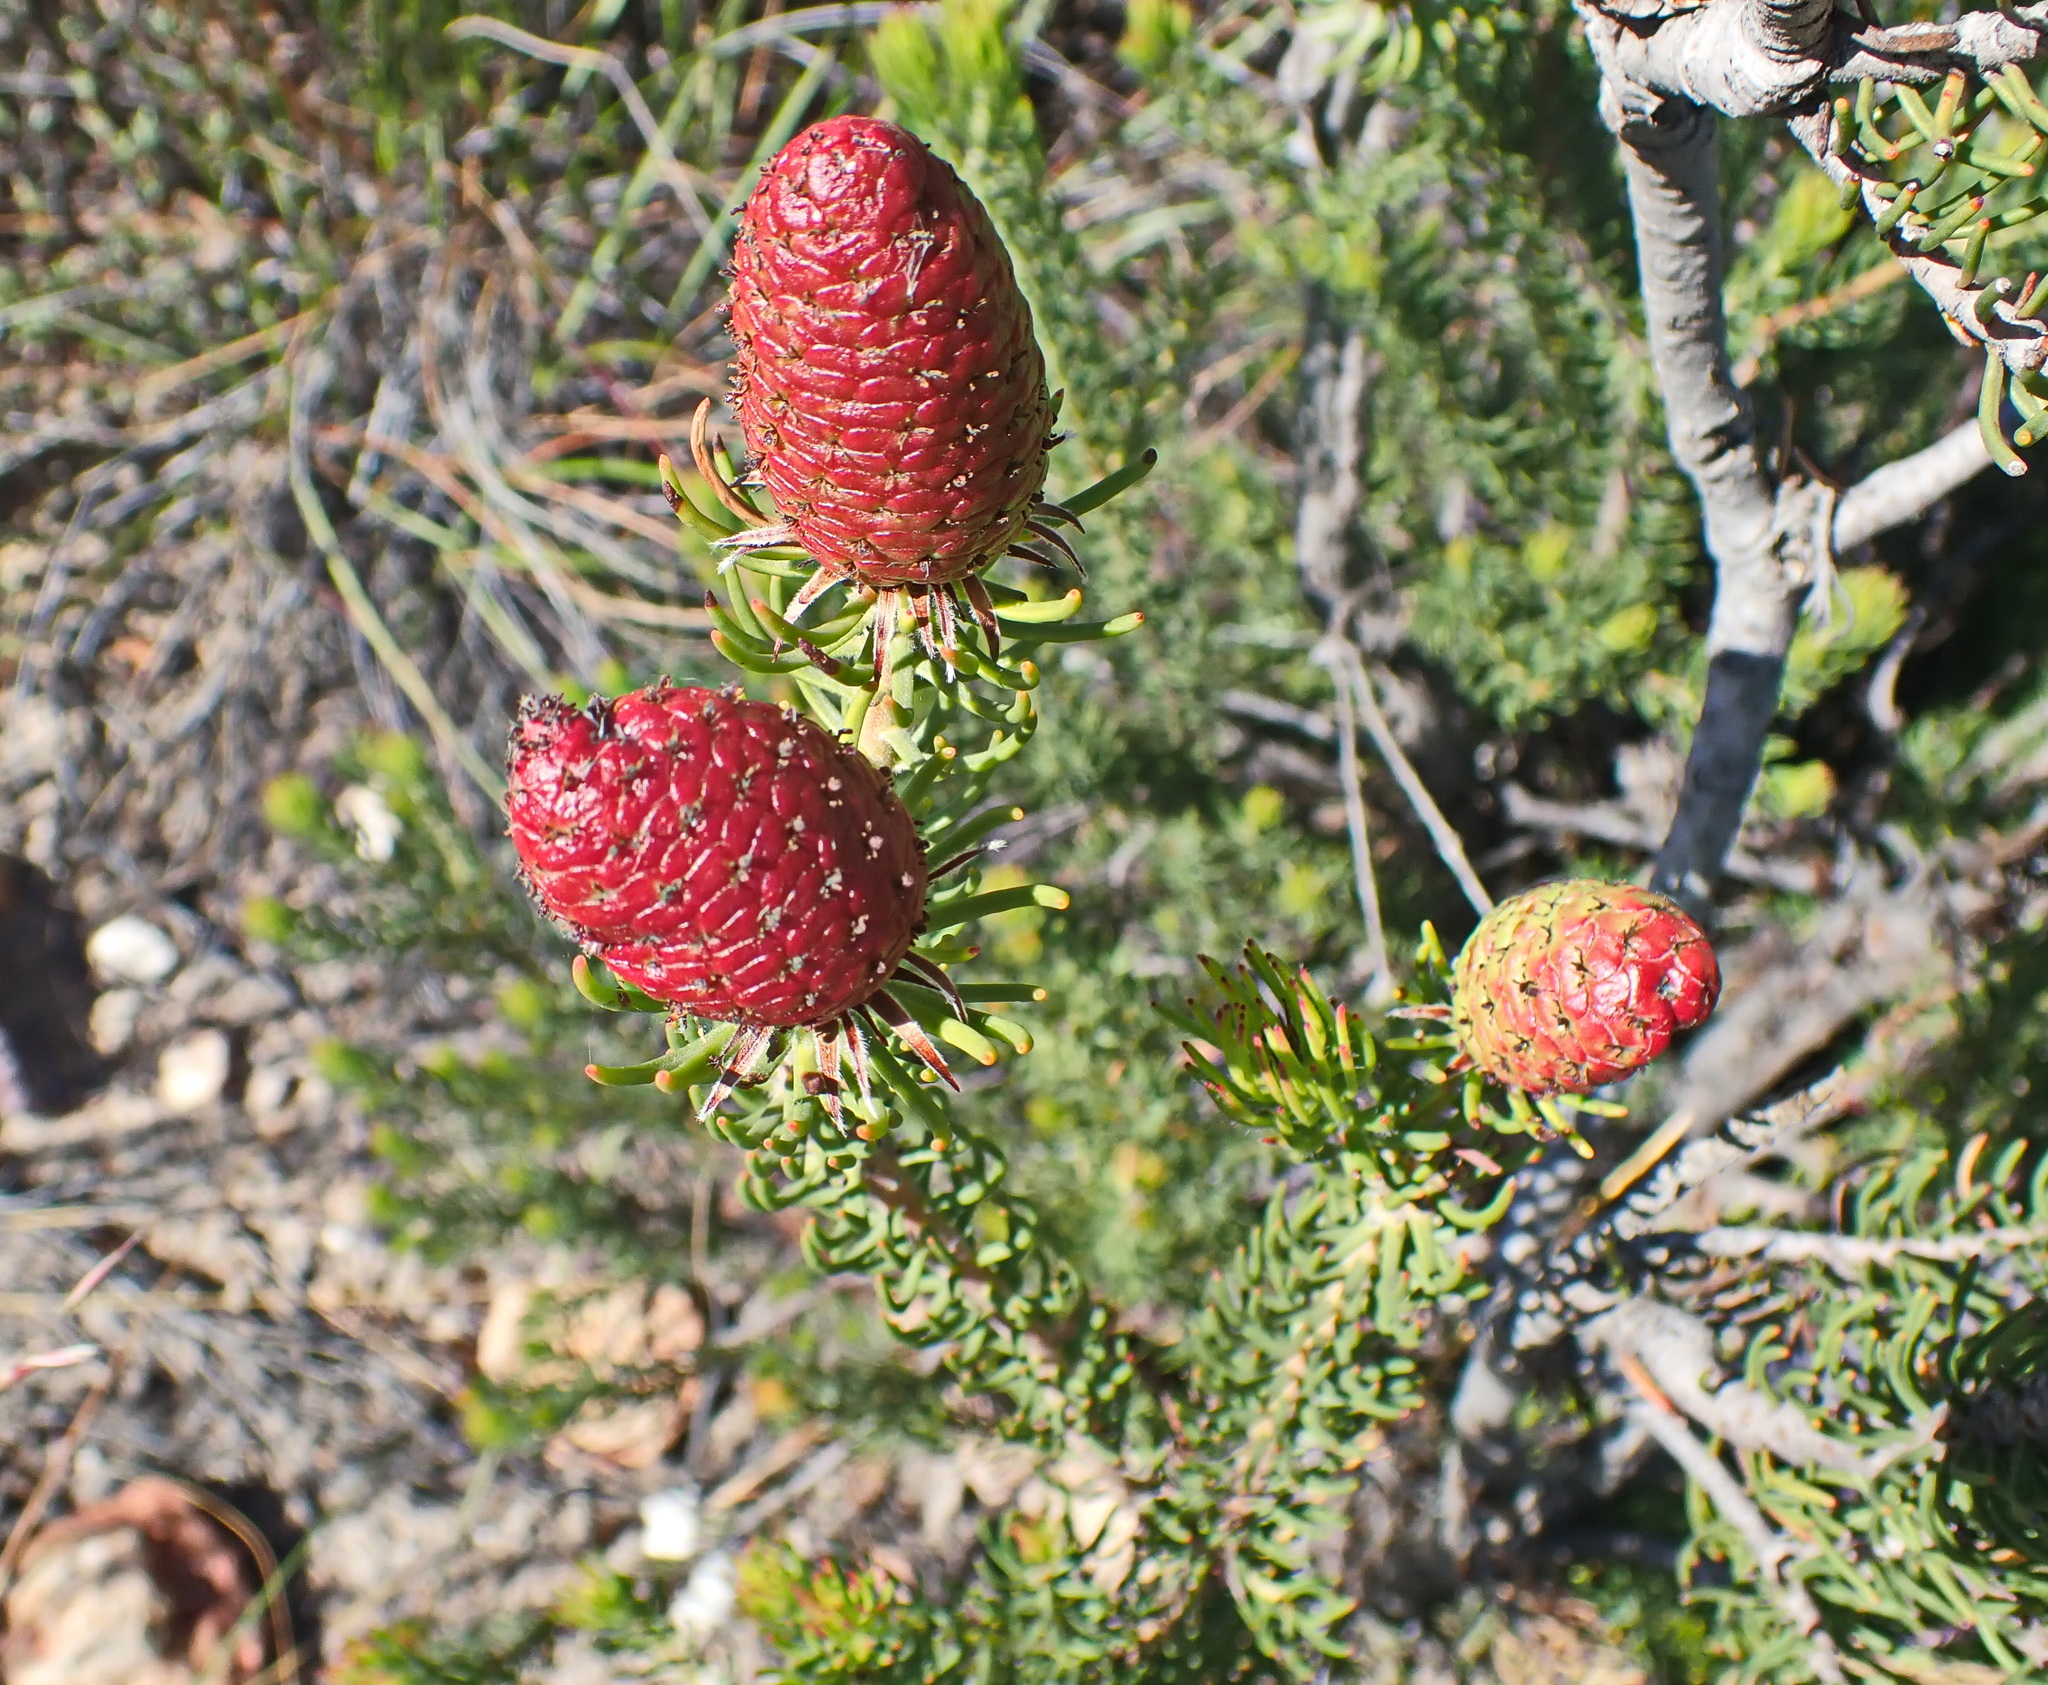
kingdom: Plantae
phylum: Tracheophyta
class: Magnoliopsida
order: Proteales
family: Proteaceae
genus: Leucadendron
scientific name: Leucadendron teretifolium
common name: Needle-leaf conebush
